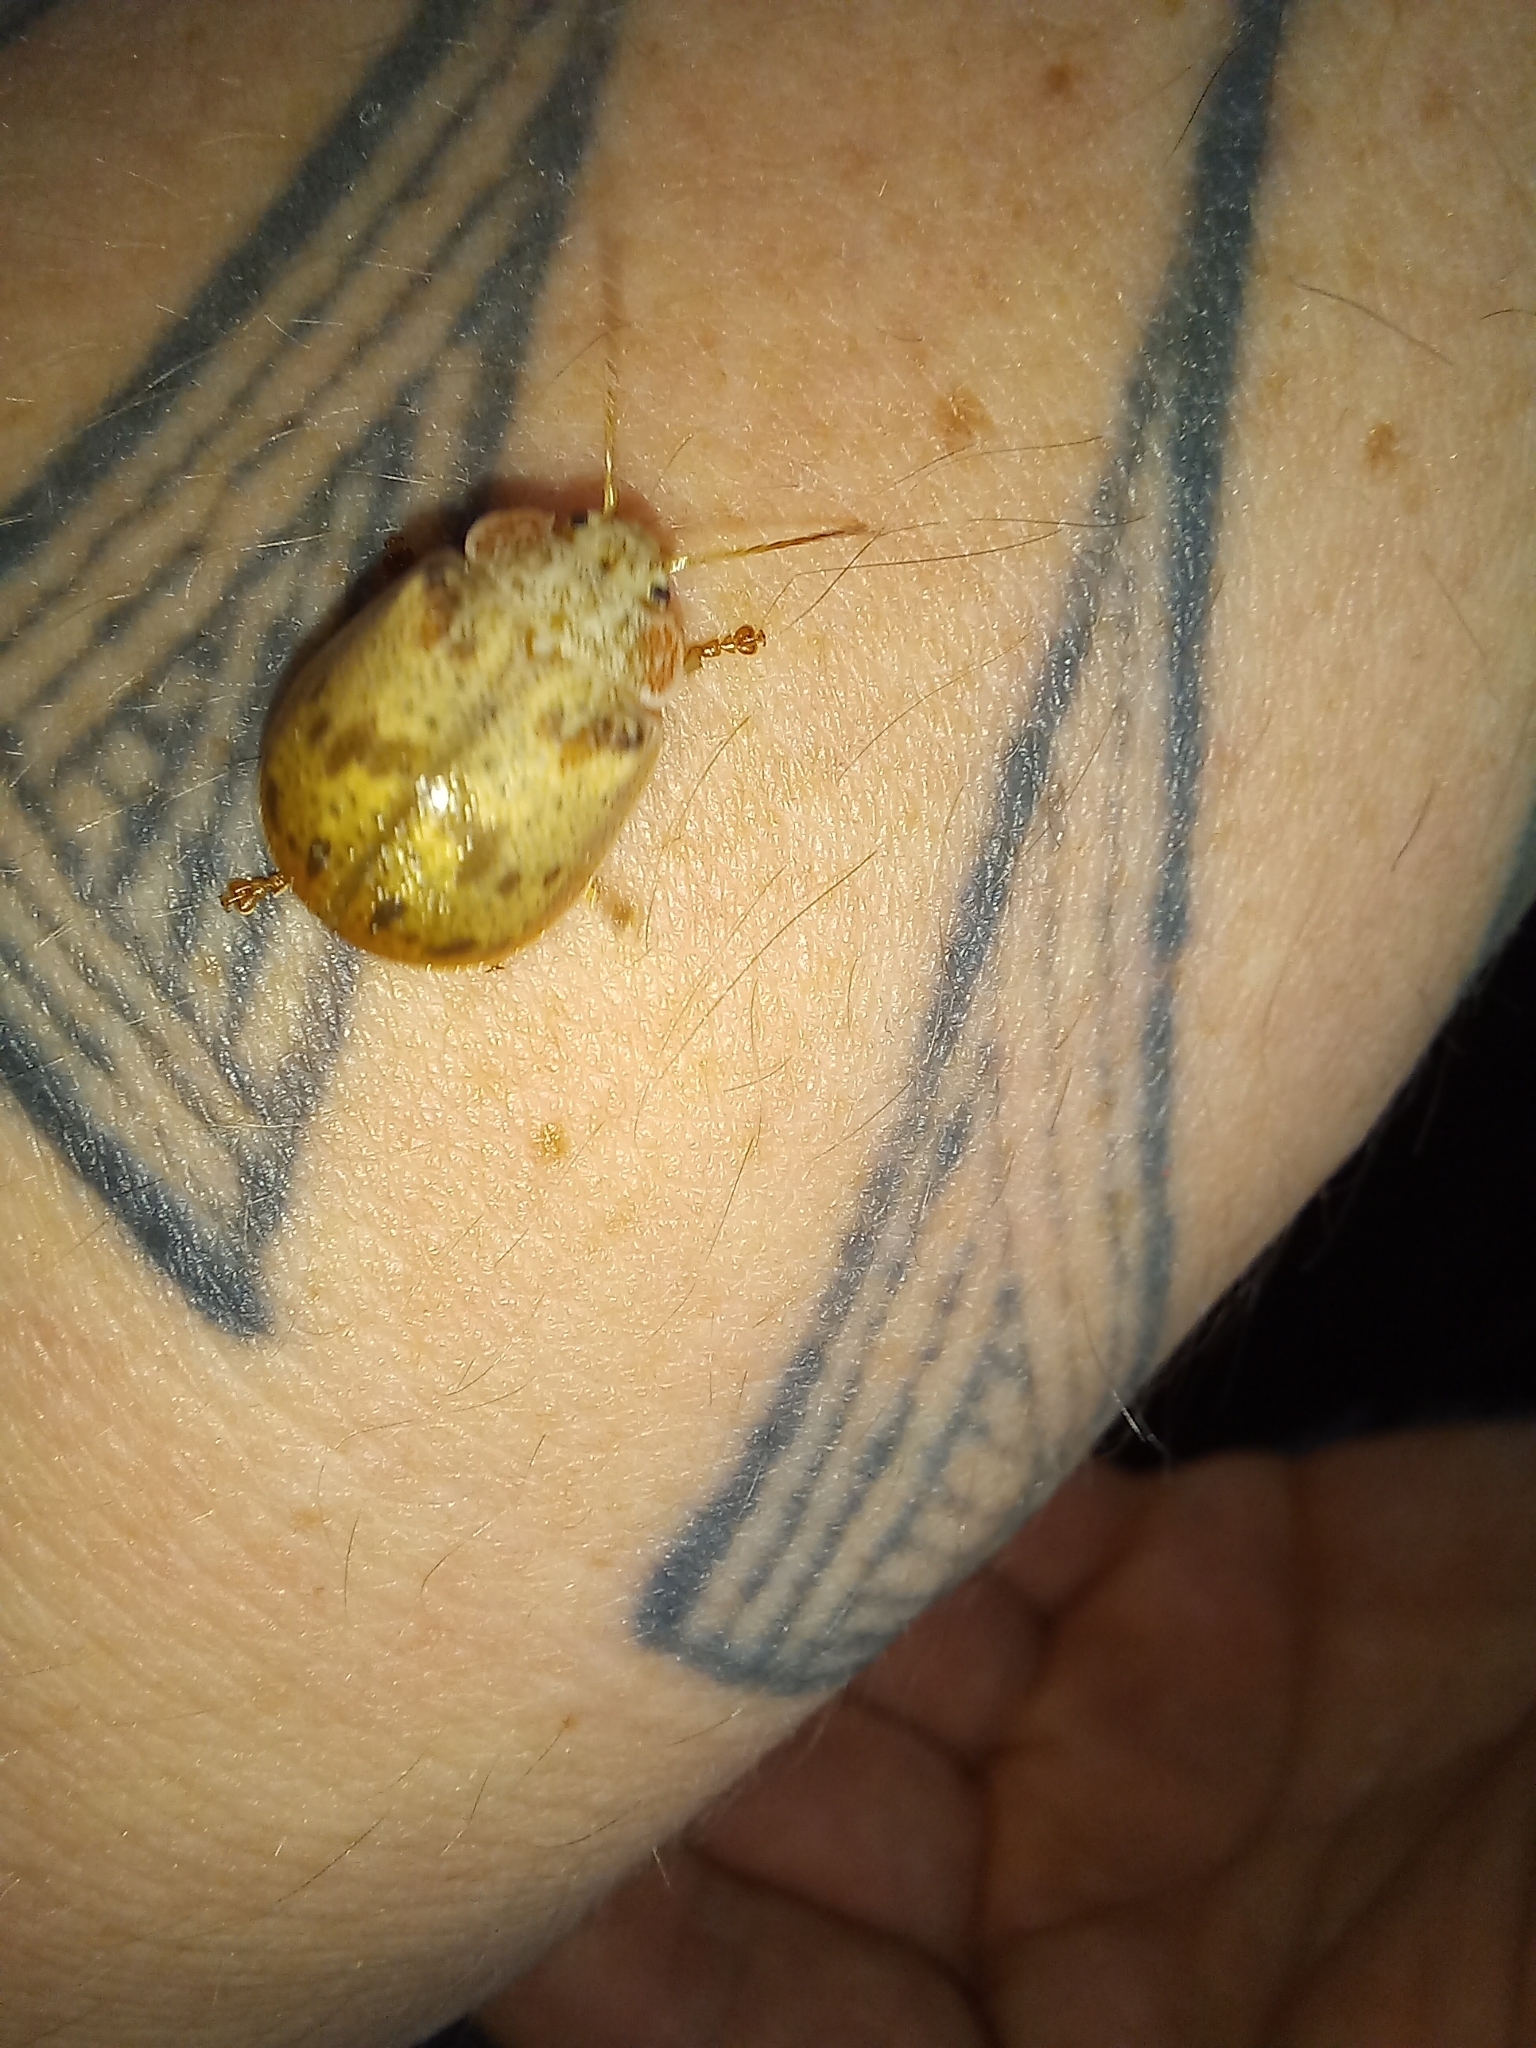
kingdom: Animalia
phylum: Arthropoda
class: Insecta
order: Coleoptera
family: Chrysomelidae
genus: Paropsis
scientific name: Paropsis charybdis
